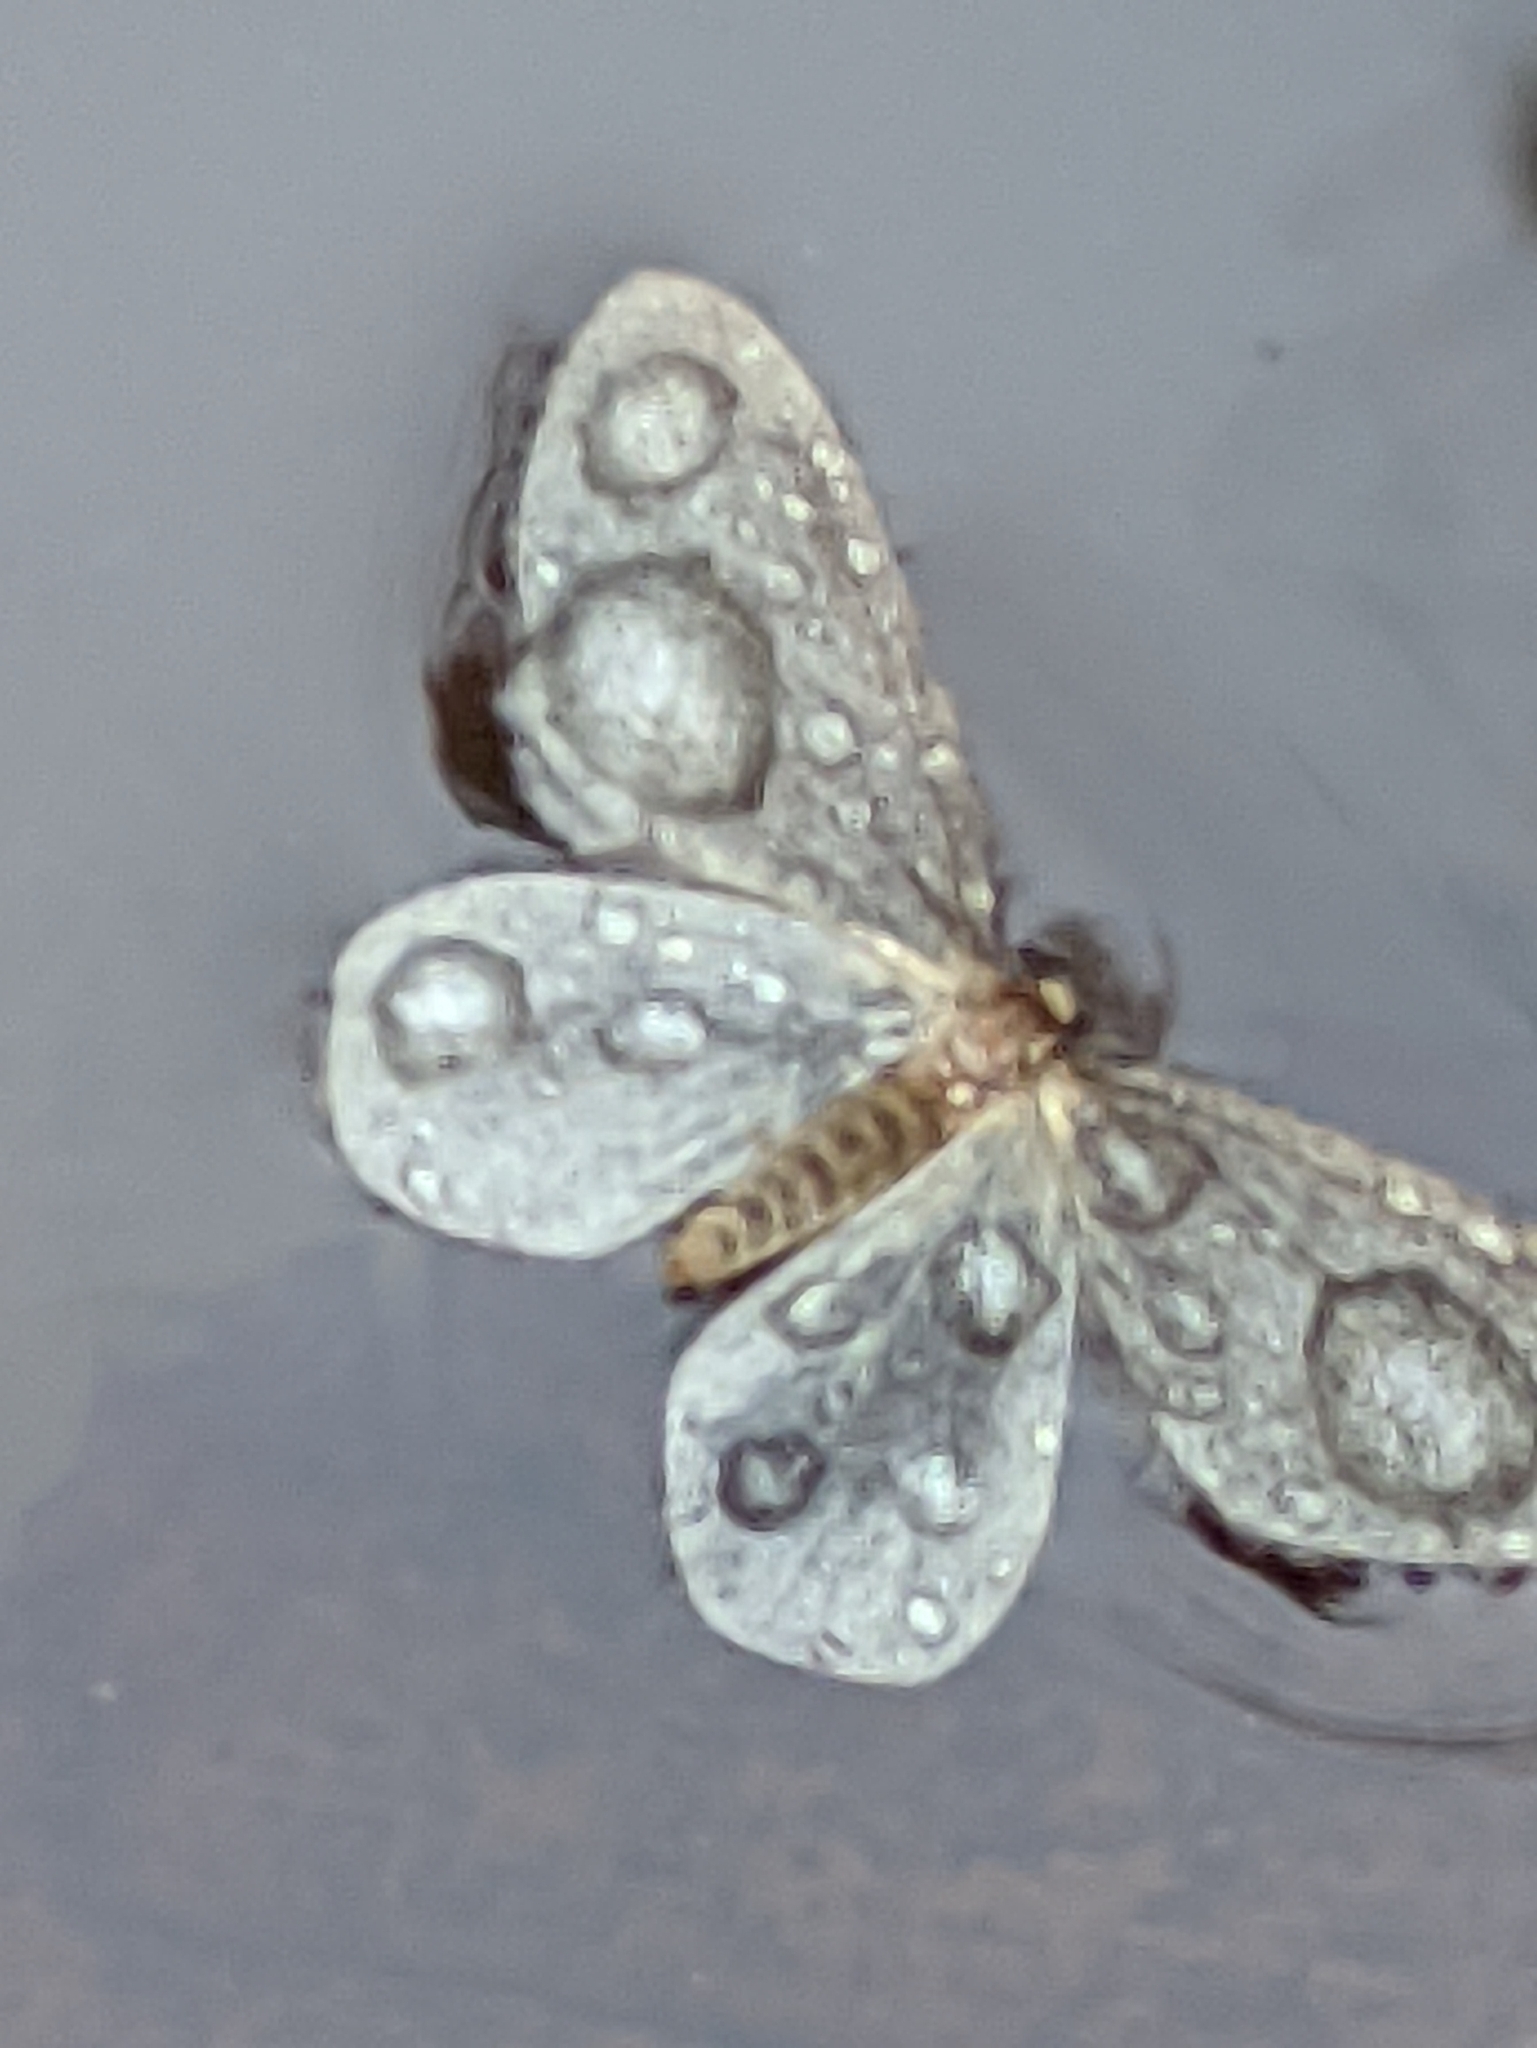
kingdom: Animalia
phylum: Arthropoda
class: Insecta
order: Lepidoptera
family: Geometridae
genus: Operophtera
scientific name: Operophtera brumata
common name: Winter moth
